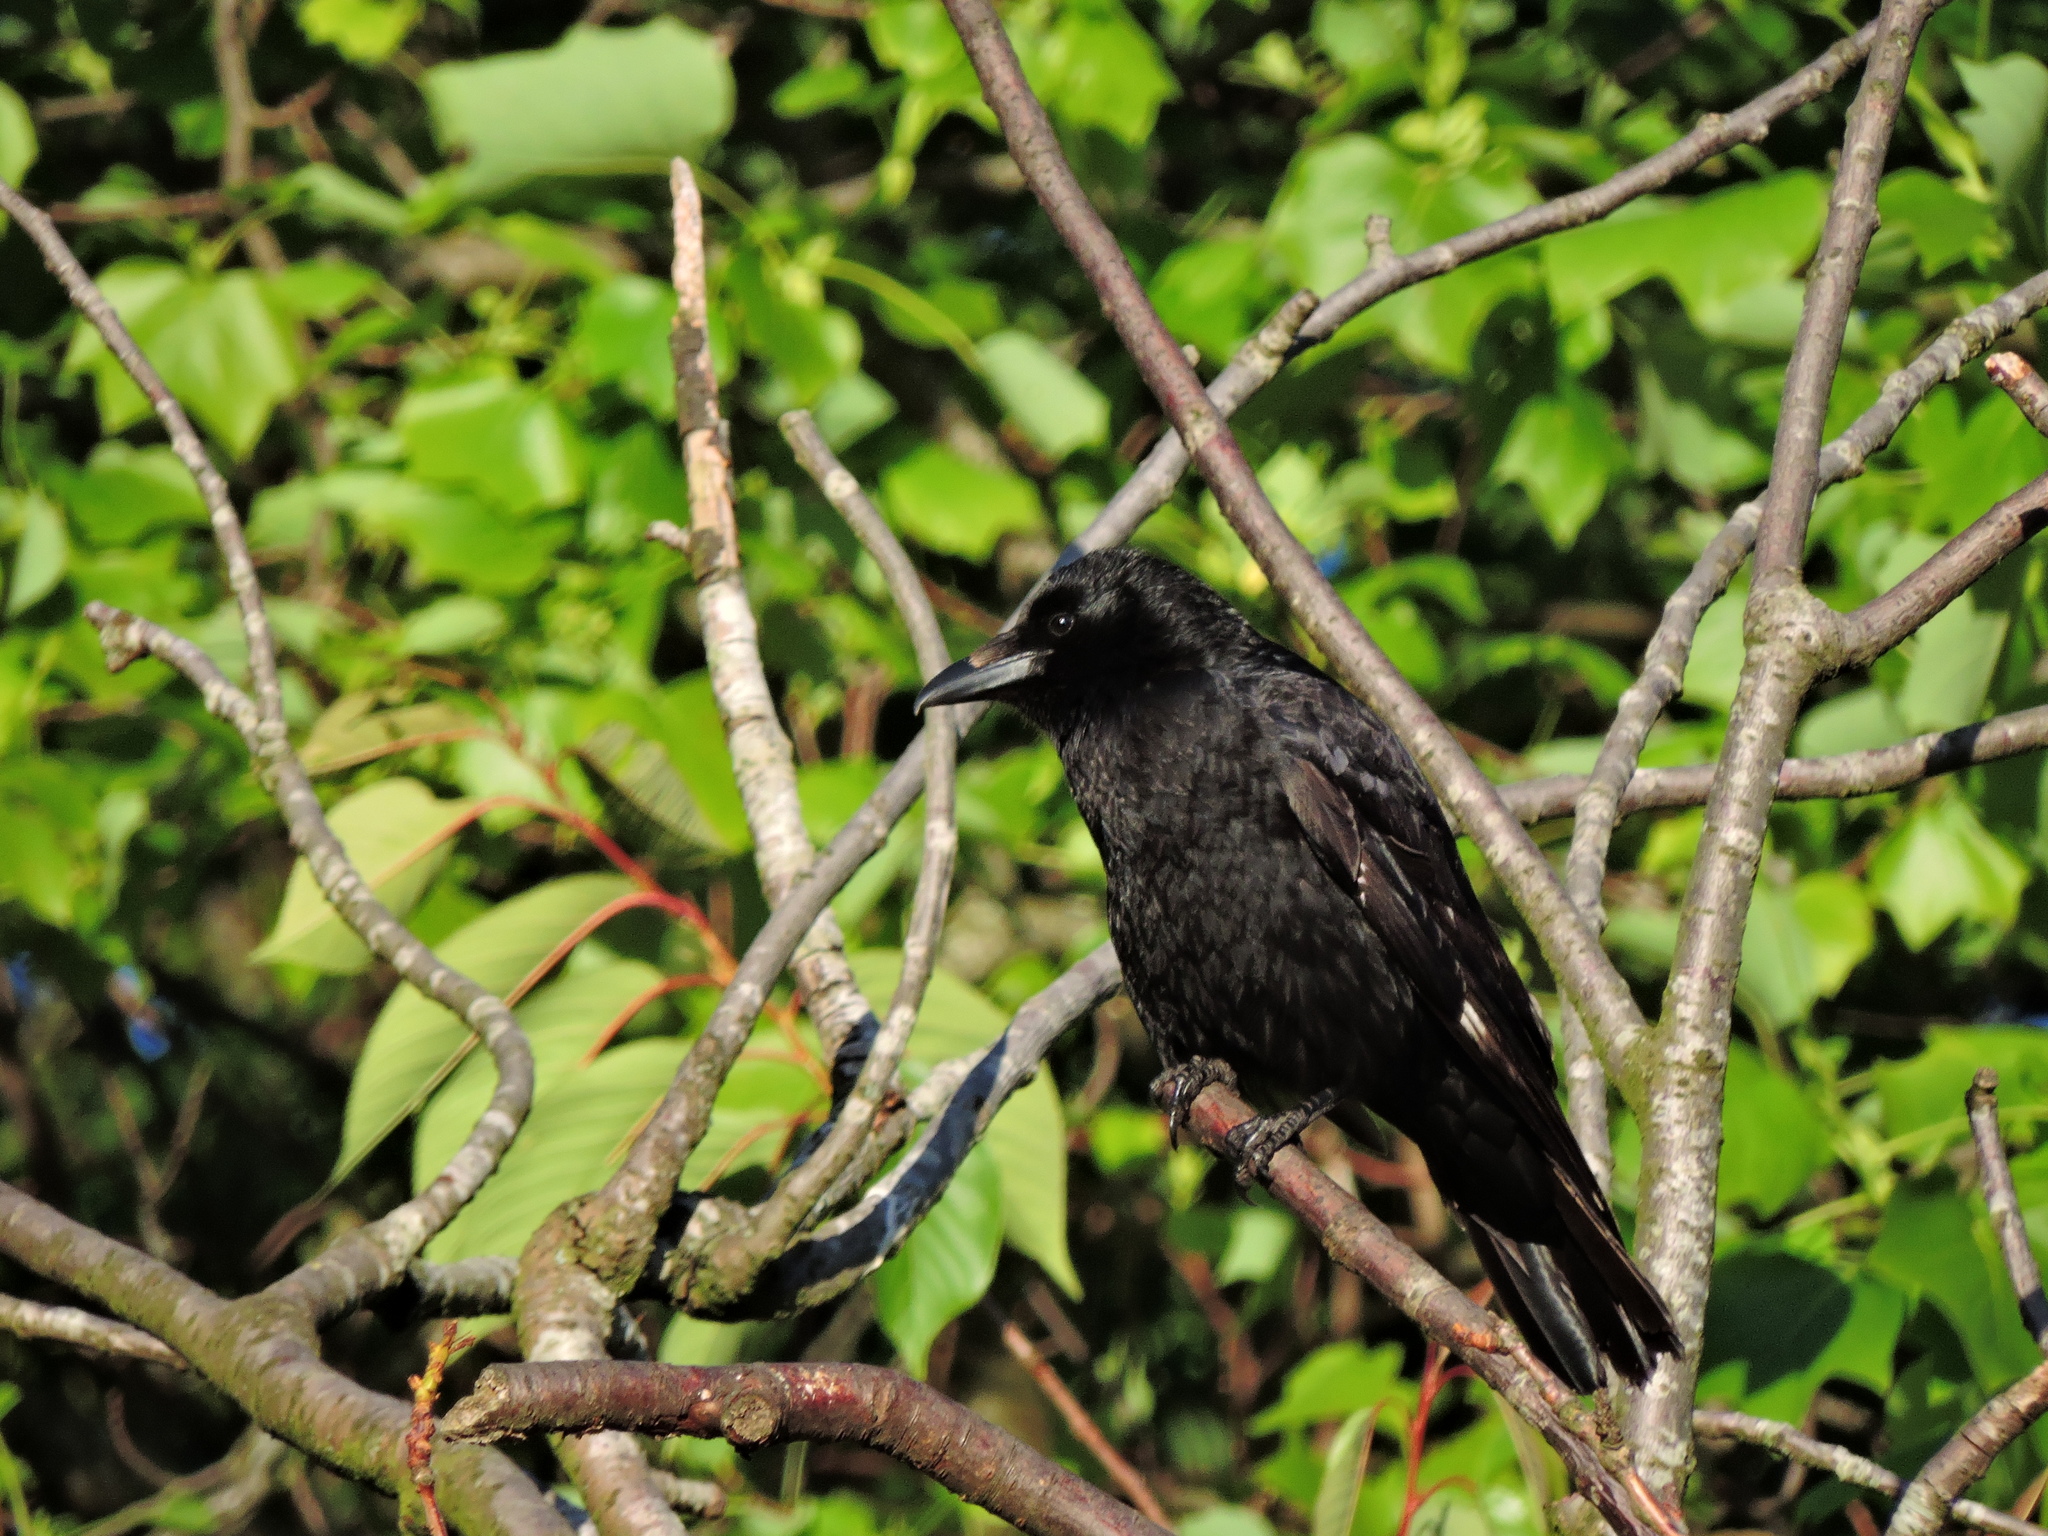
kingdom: Animalia
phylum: Chordata
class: Aves
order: Passeriformes
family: Corvidae
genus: Corvus
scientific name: Corvus corone
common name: Carrion crow
